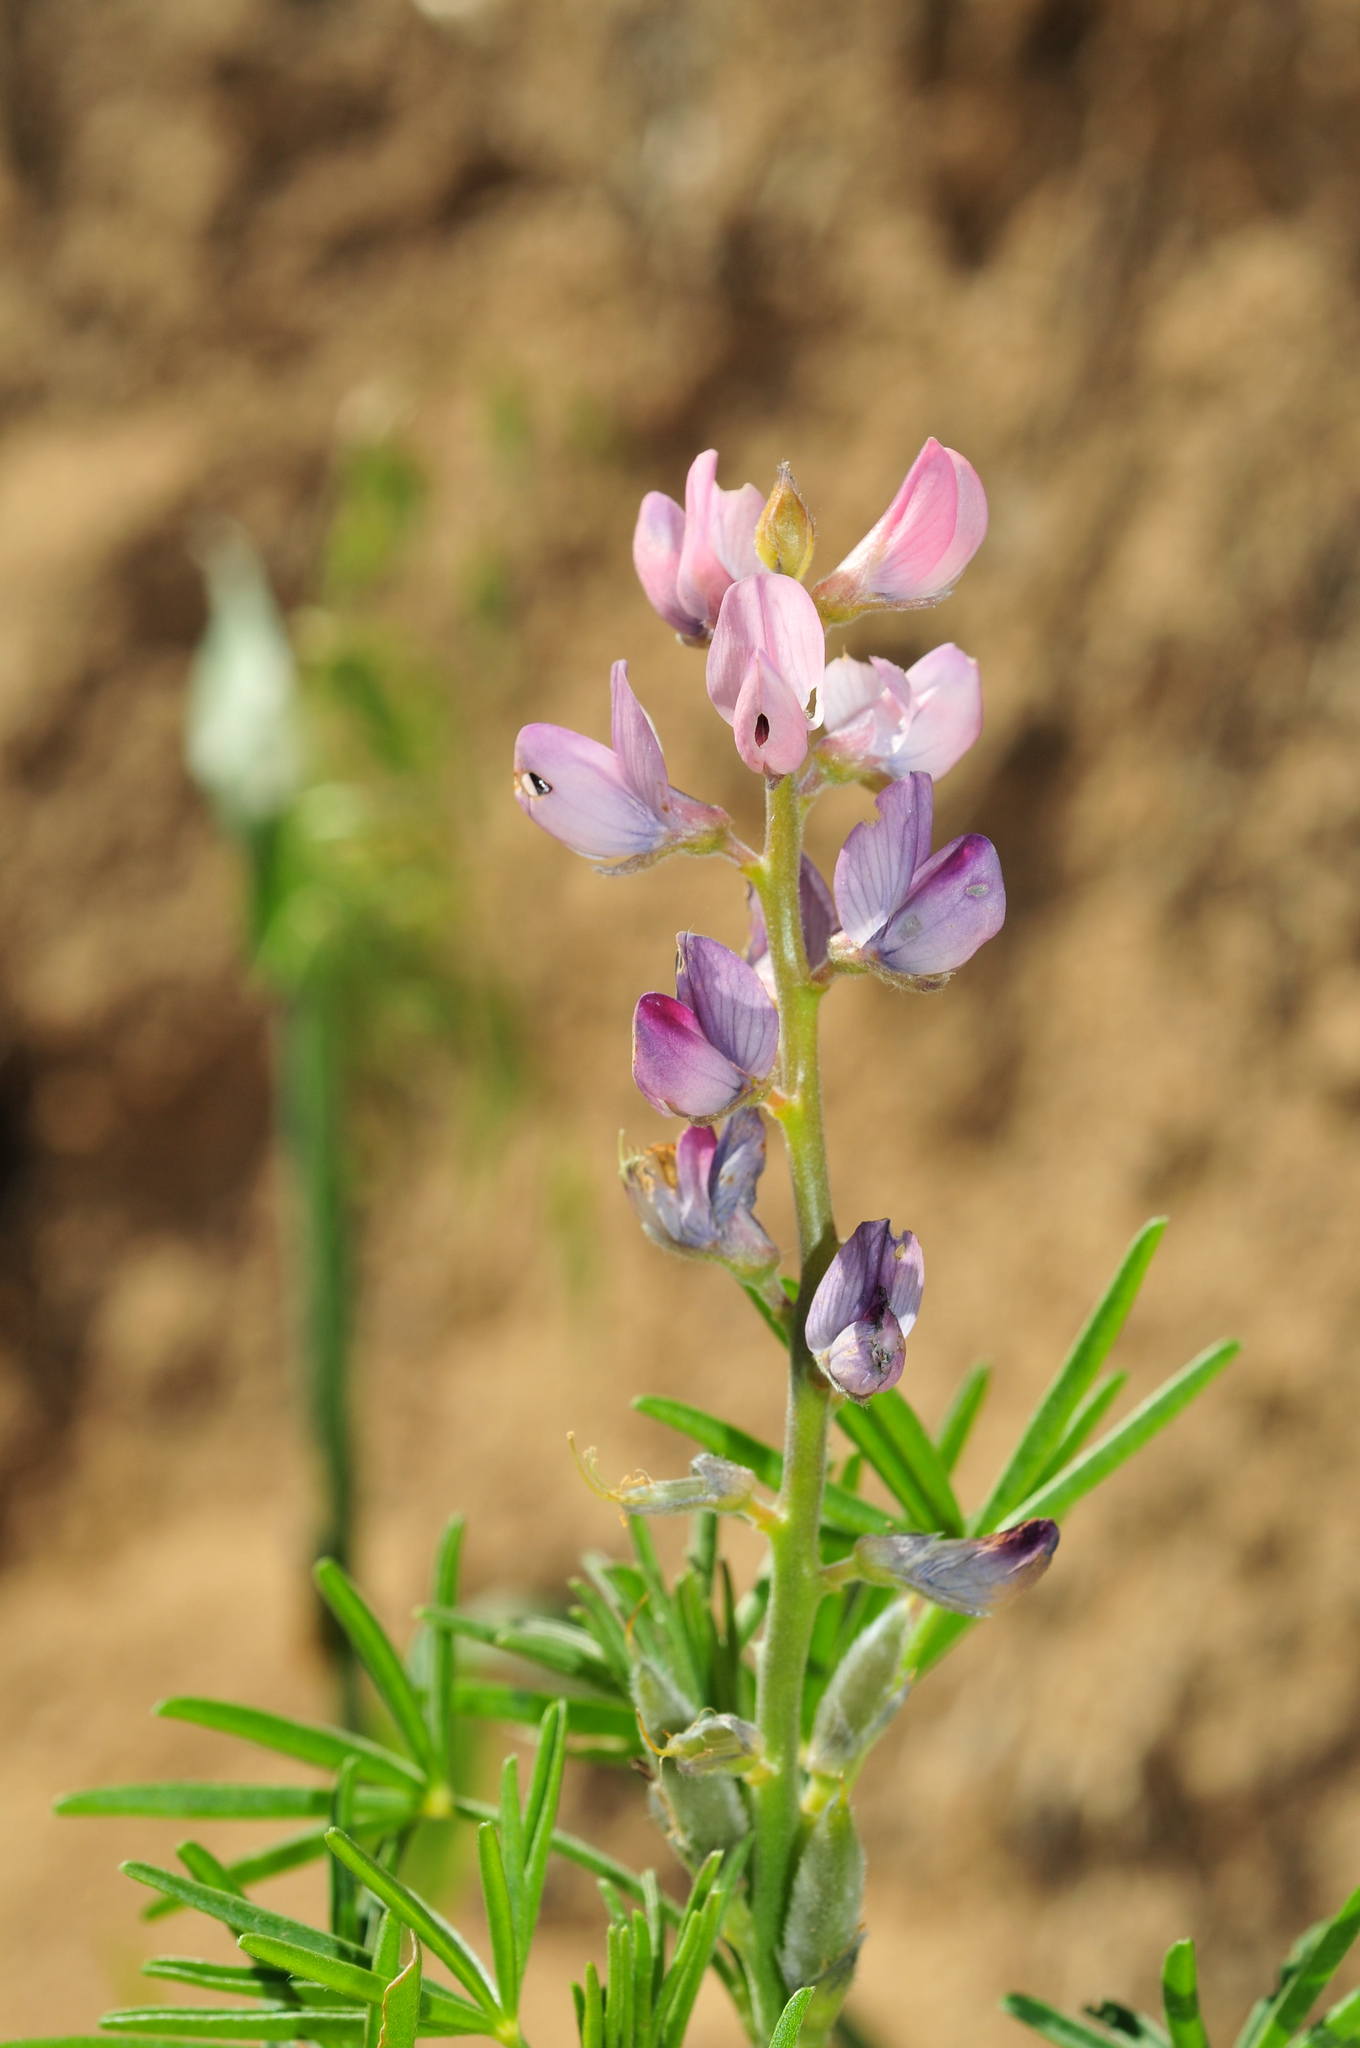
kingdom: Plantae
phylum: Tracheophyta
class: Magnoliopsida
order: Fabales
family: Fabaceae
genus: Lupinus
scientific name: Lupinus angustifolius
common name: Narrow-leaved lupin
